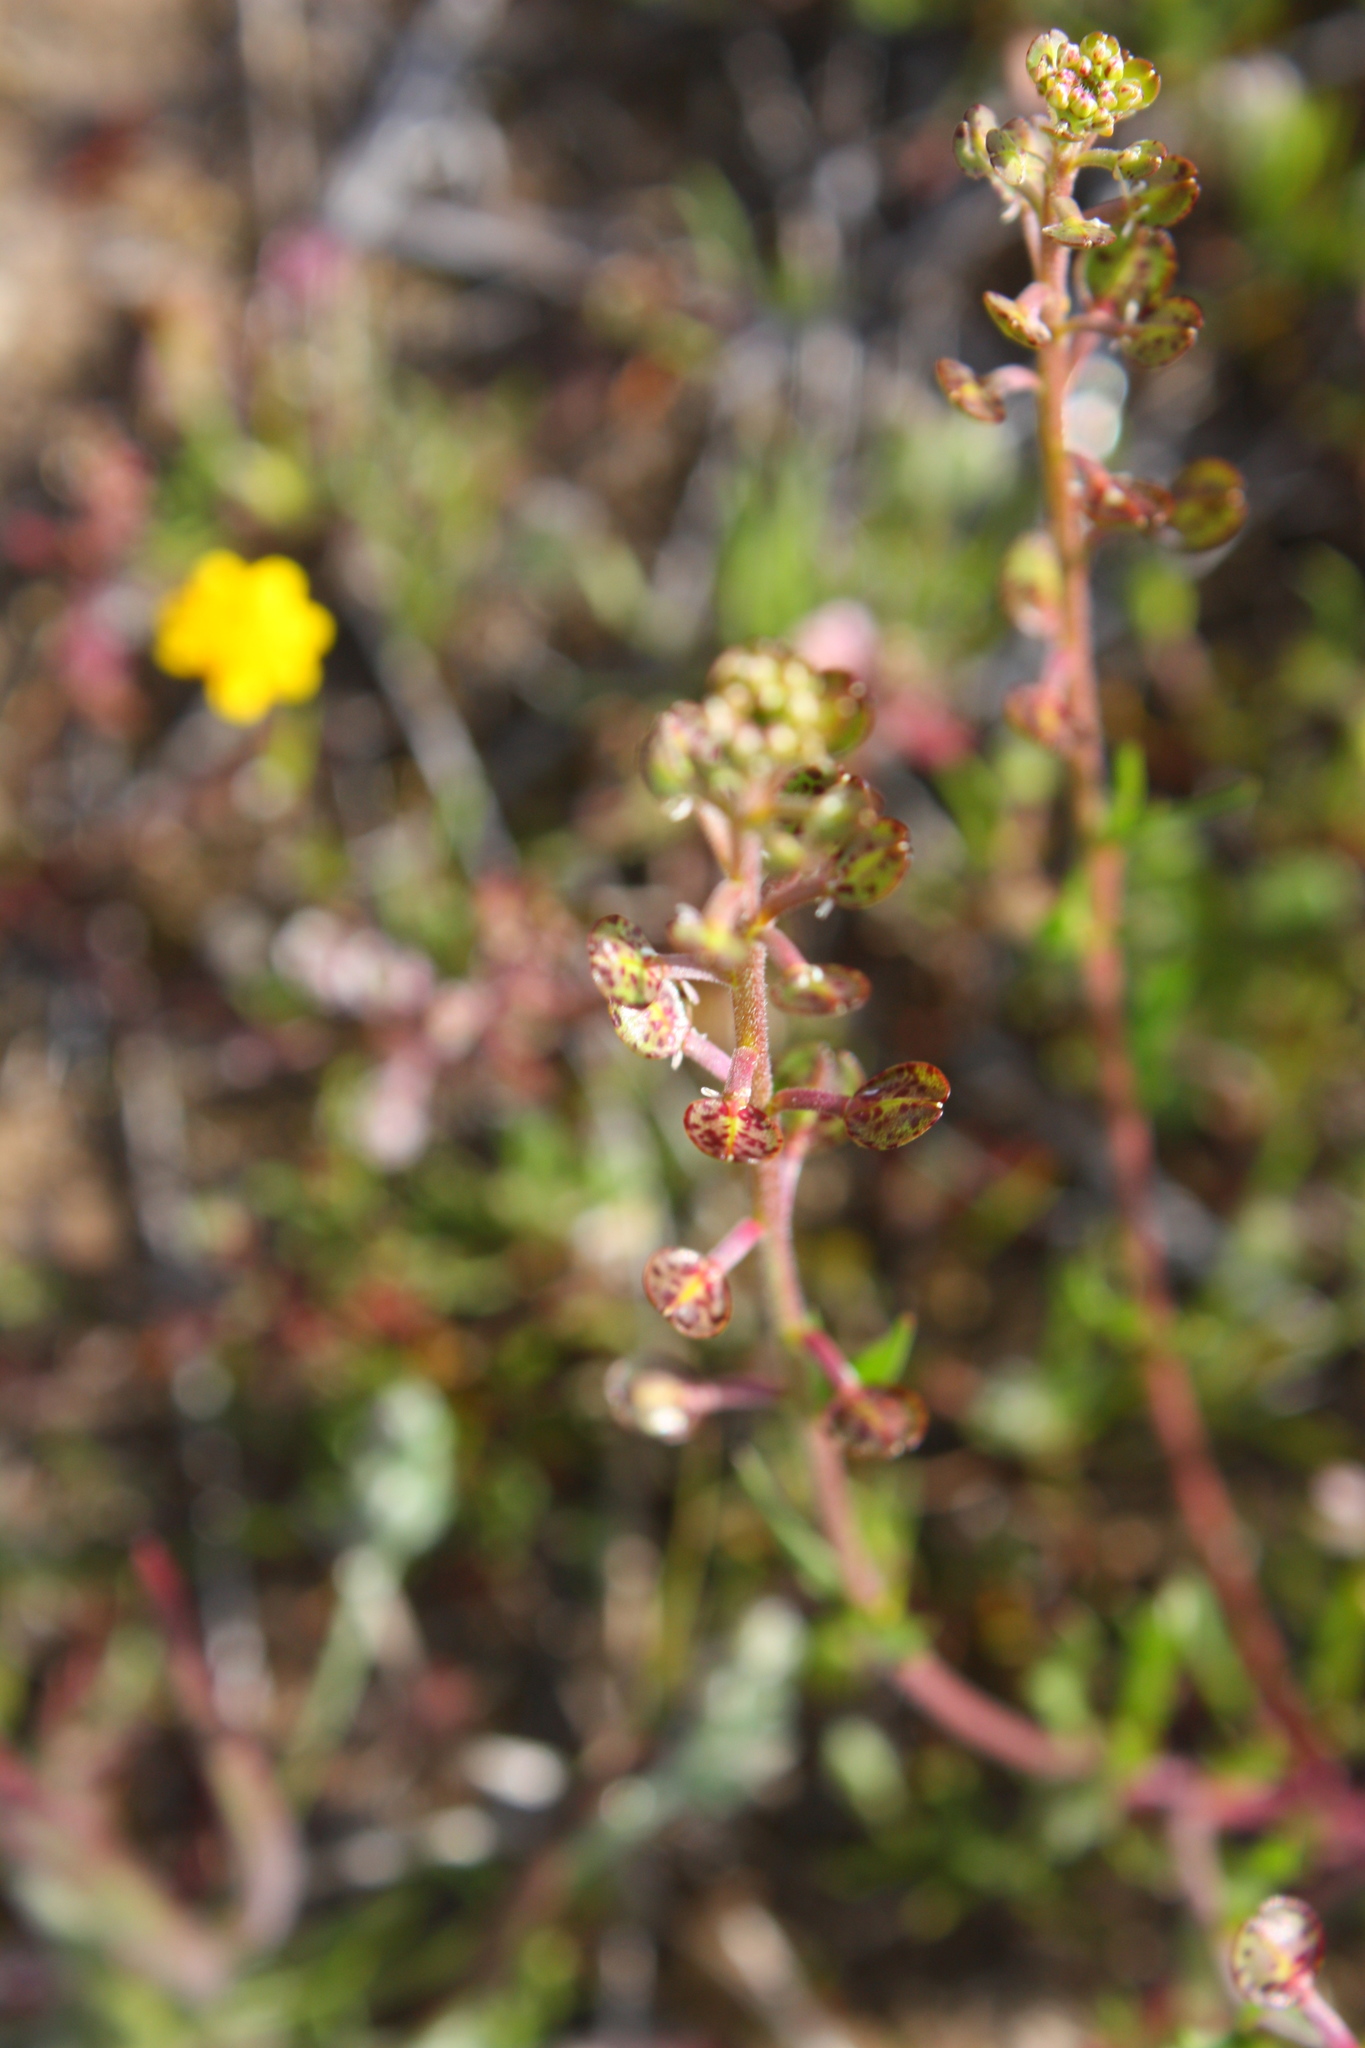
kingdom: Plantae
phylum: Tracheophyta
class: Magnoliopsida
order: Brassicales
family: Brassicaceae
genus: Lepidium
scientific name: Lepidium nitidum
